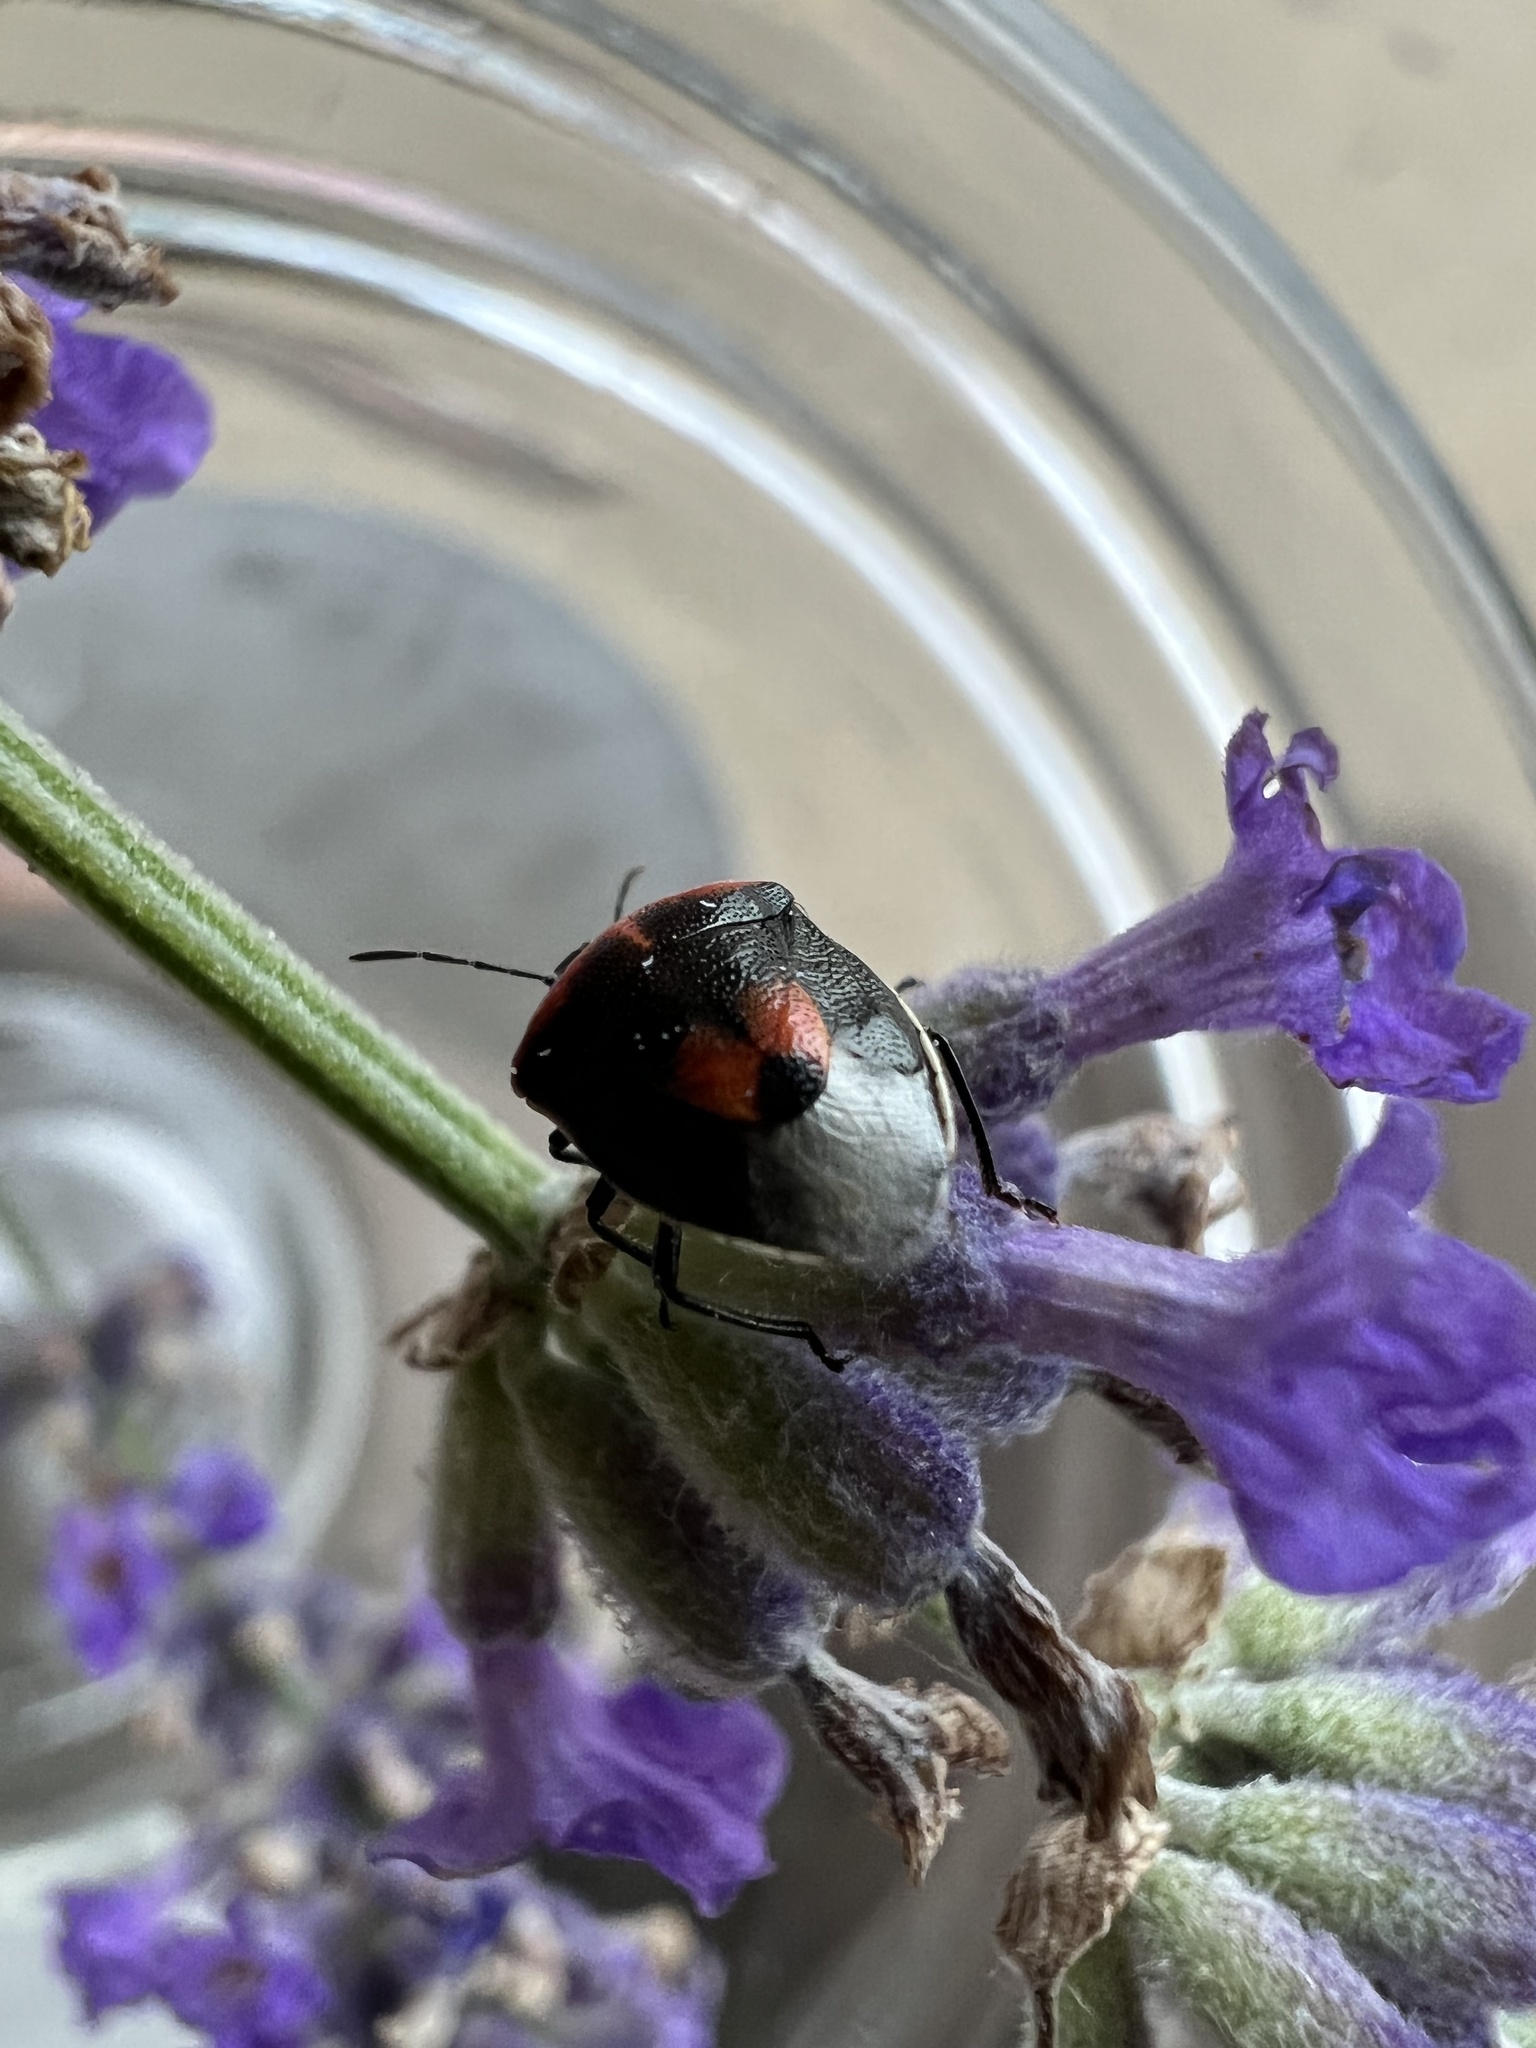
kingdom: Animalia
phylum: Arthropoda
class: Insecta
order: Hemiptera
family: Pentatomidae
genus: Cosmopepla
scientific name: Cosmopepla lintneriana
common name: Twice-stabbed stink bug
